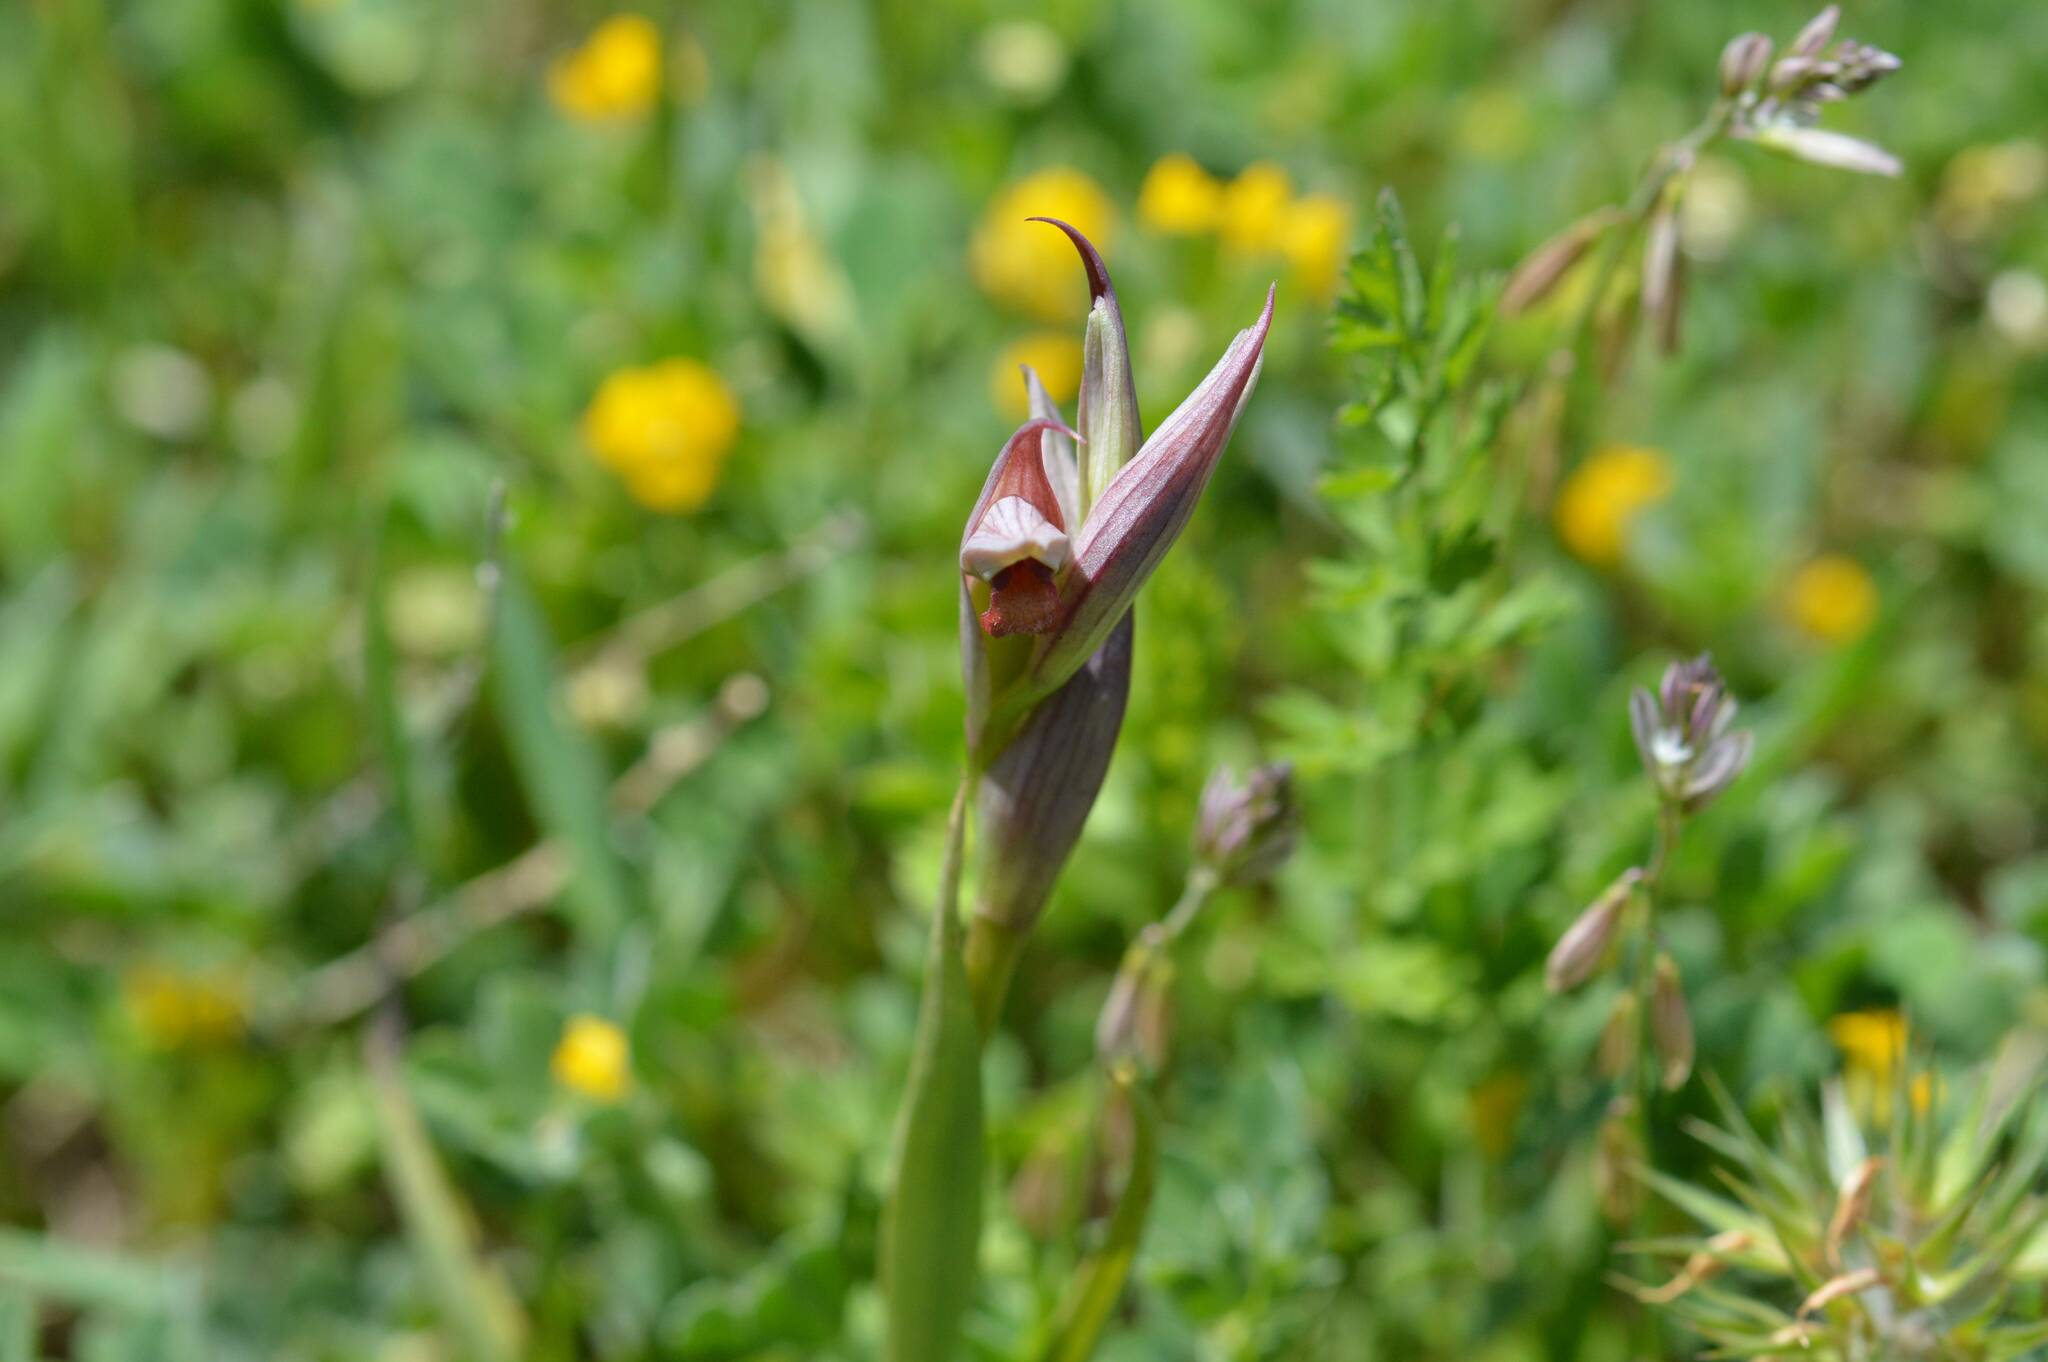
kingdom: Plantae
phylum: Tracheophyta
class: Liliopsida
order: Asparagales
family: Orchidaceae
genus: Serapias
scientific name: Serapias parviflora
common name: Small-flowered tongue-orchid
